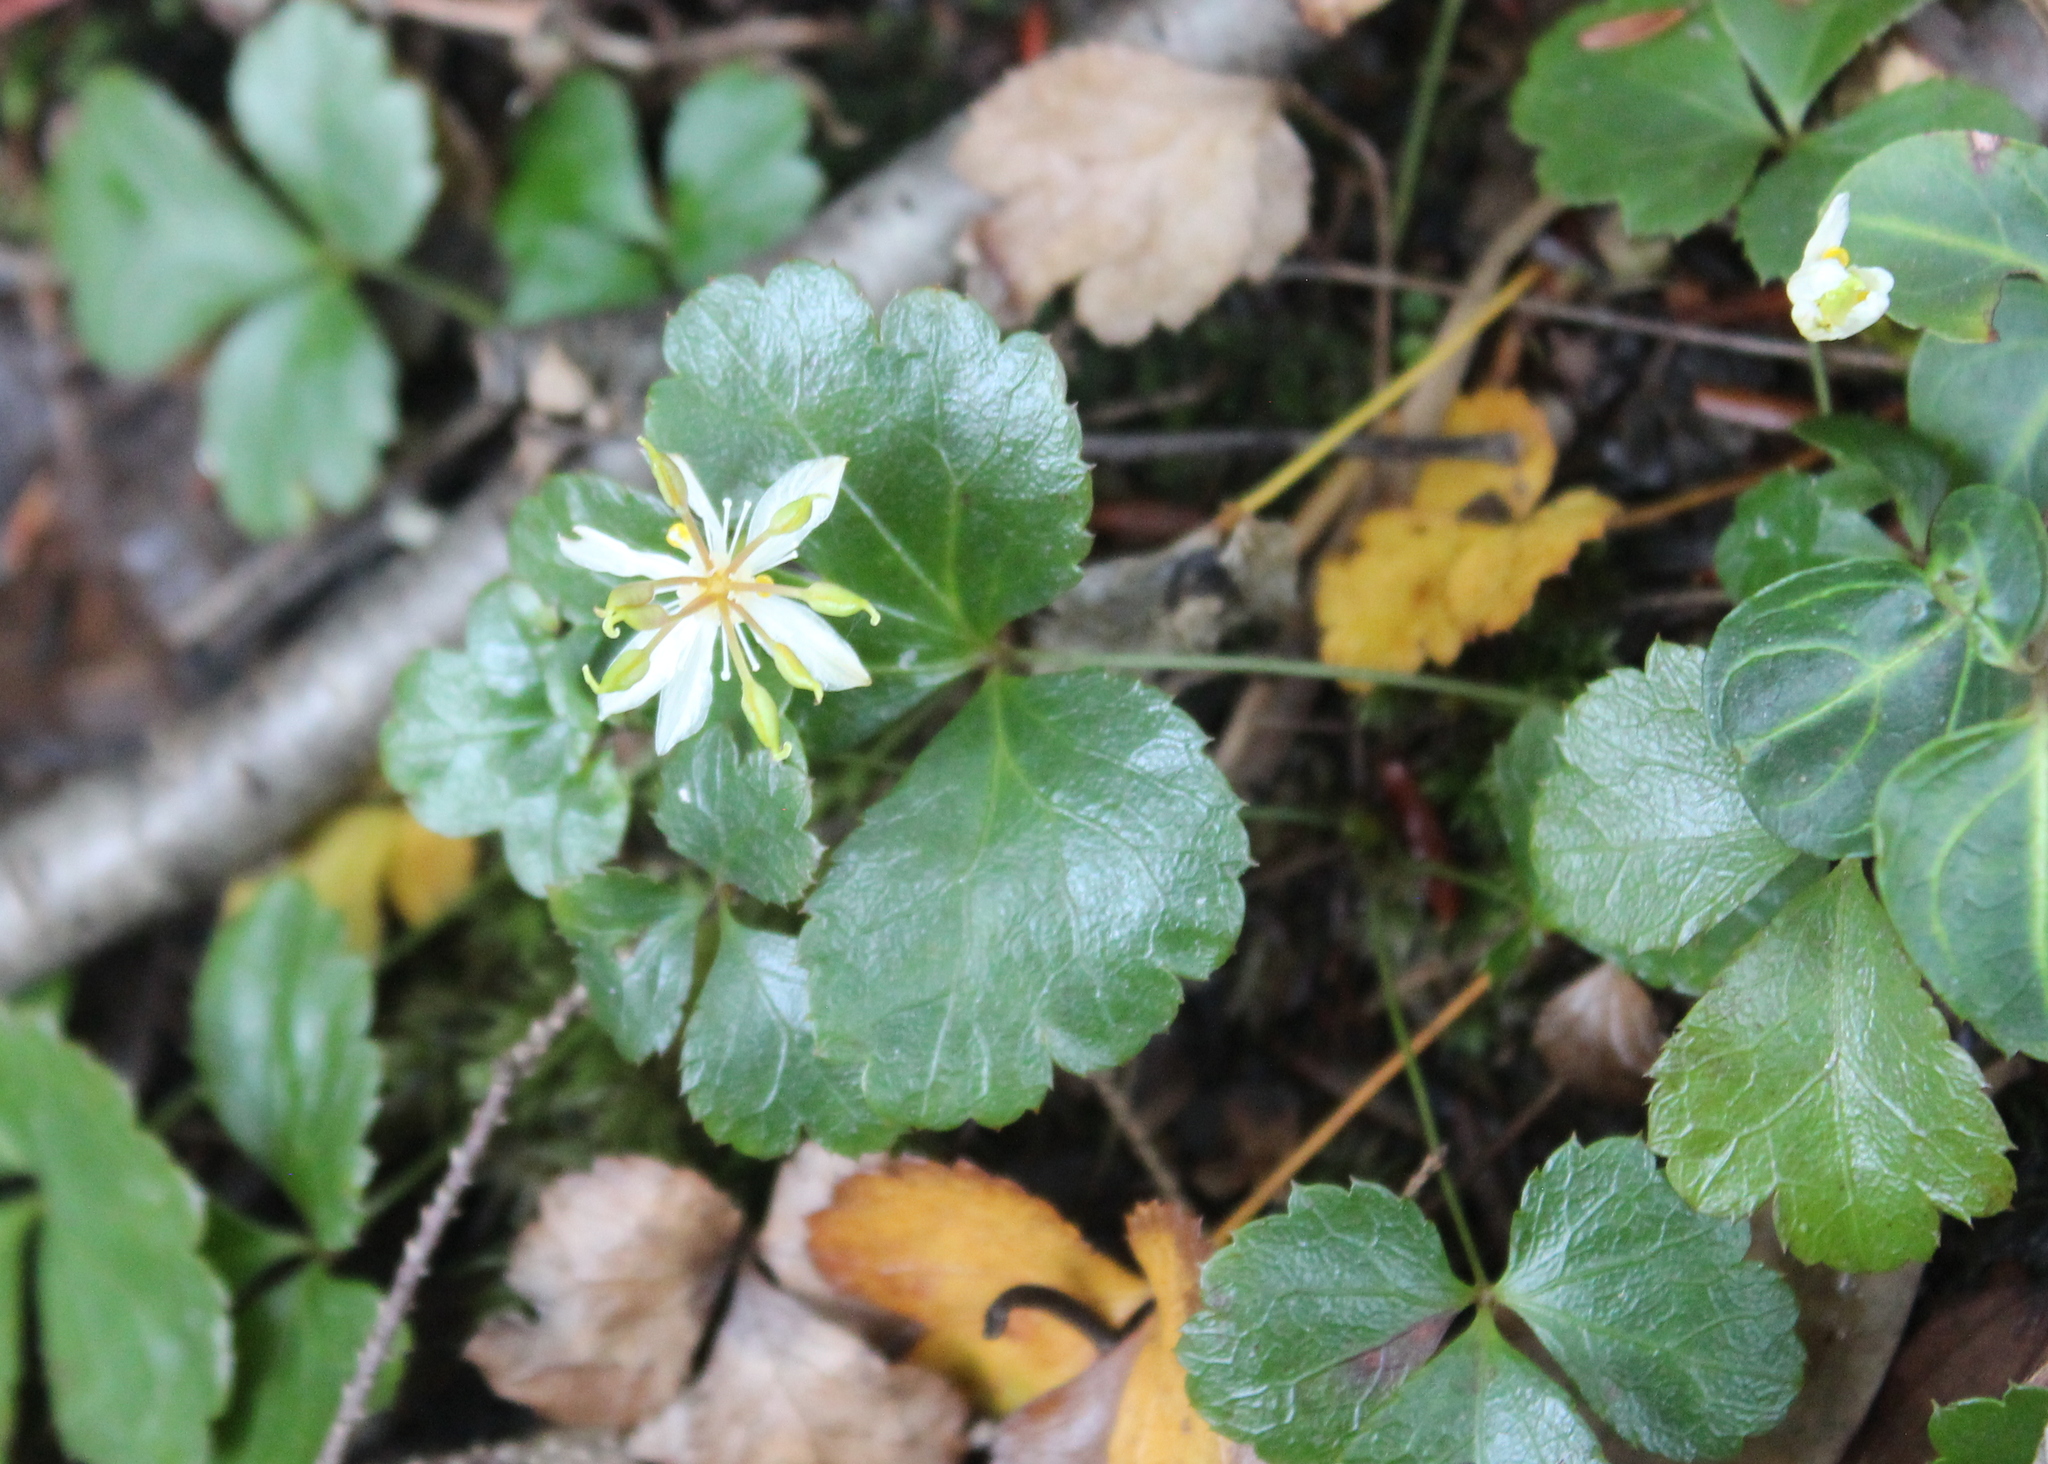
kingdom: Plantae
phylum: Tracheophyta
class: Magnoliopsida
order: Ranunculales
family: Ranunculaceae
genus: Coptis
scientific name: Coptis trifolia
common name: Canker-root
